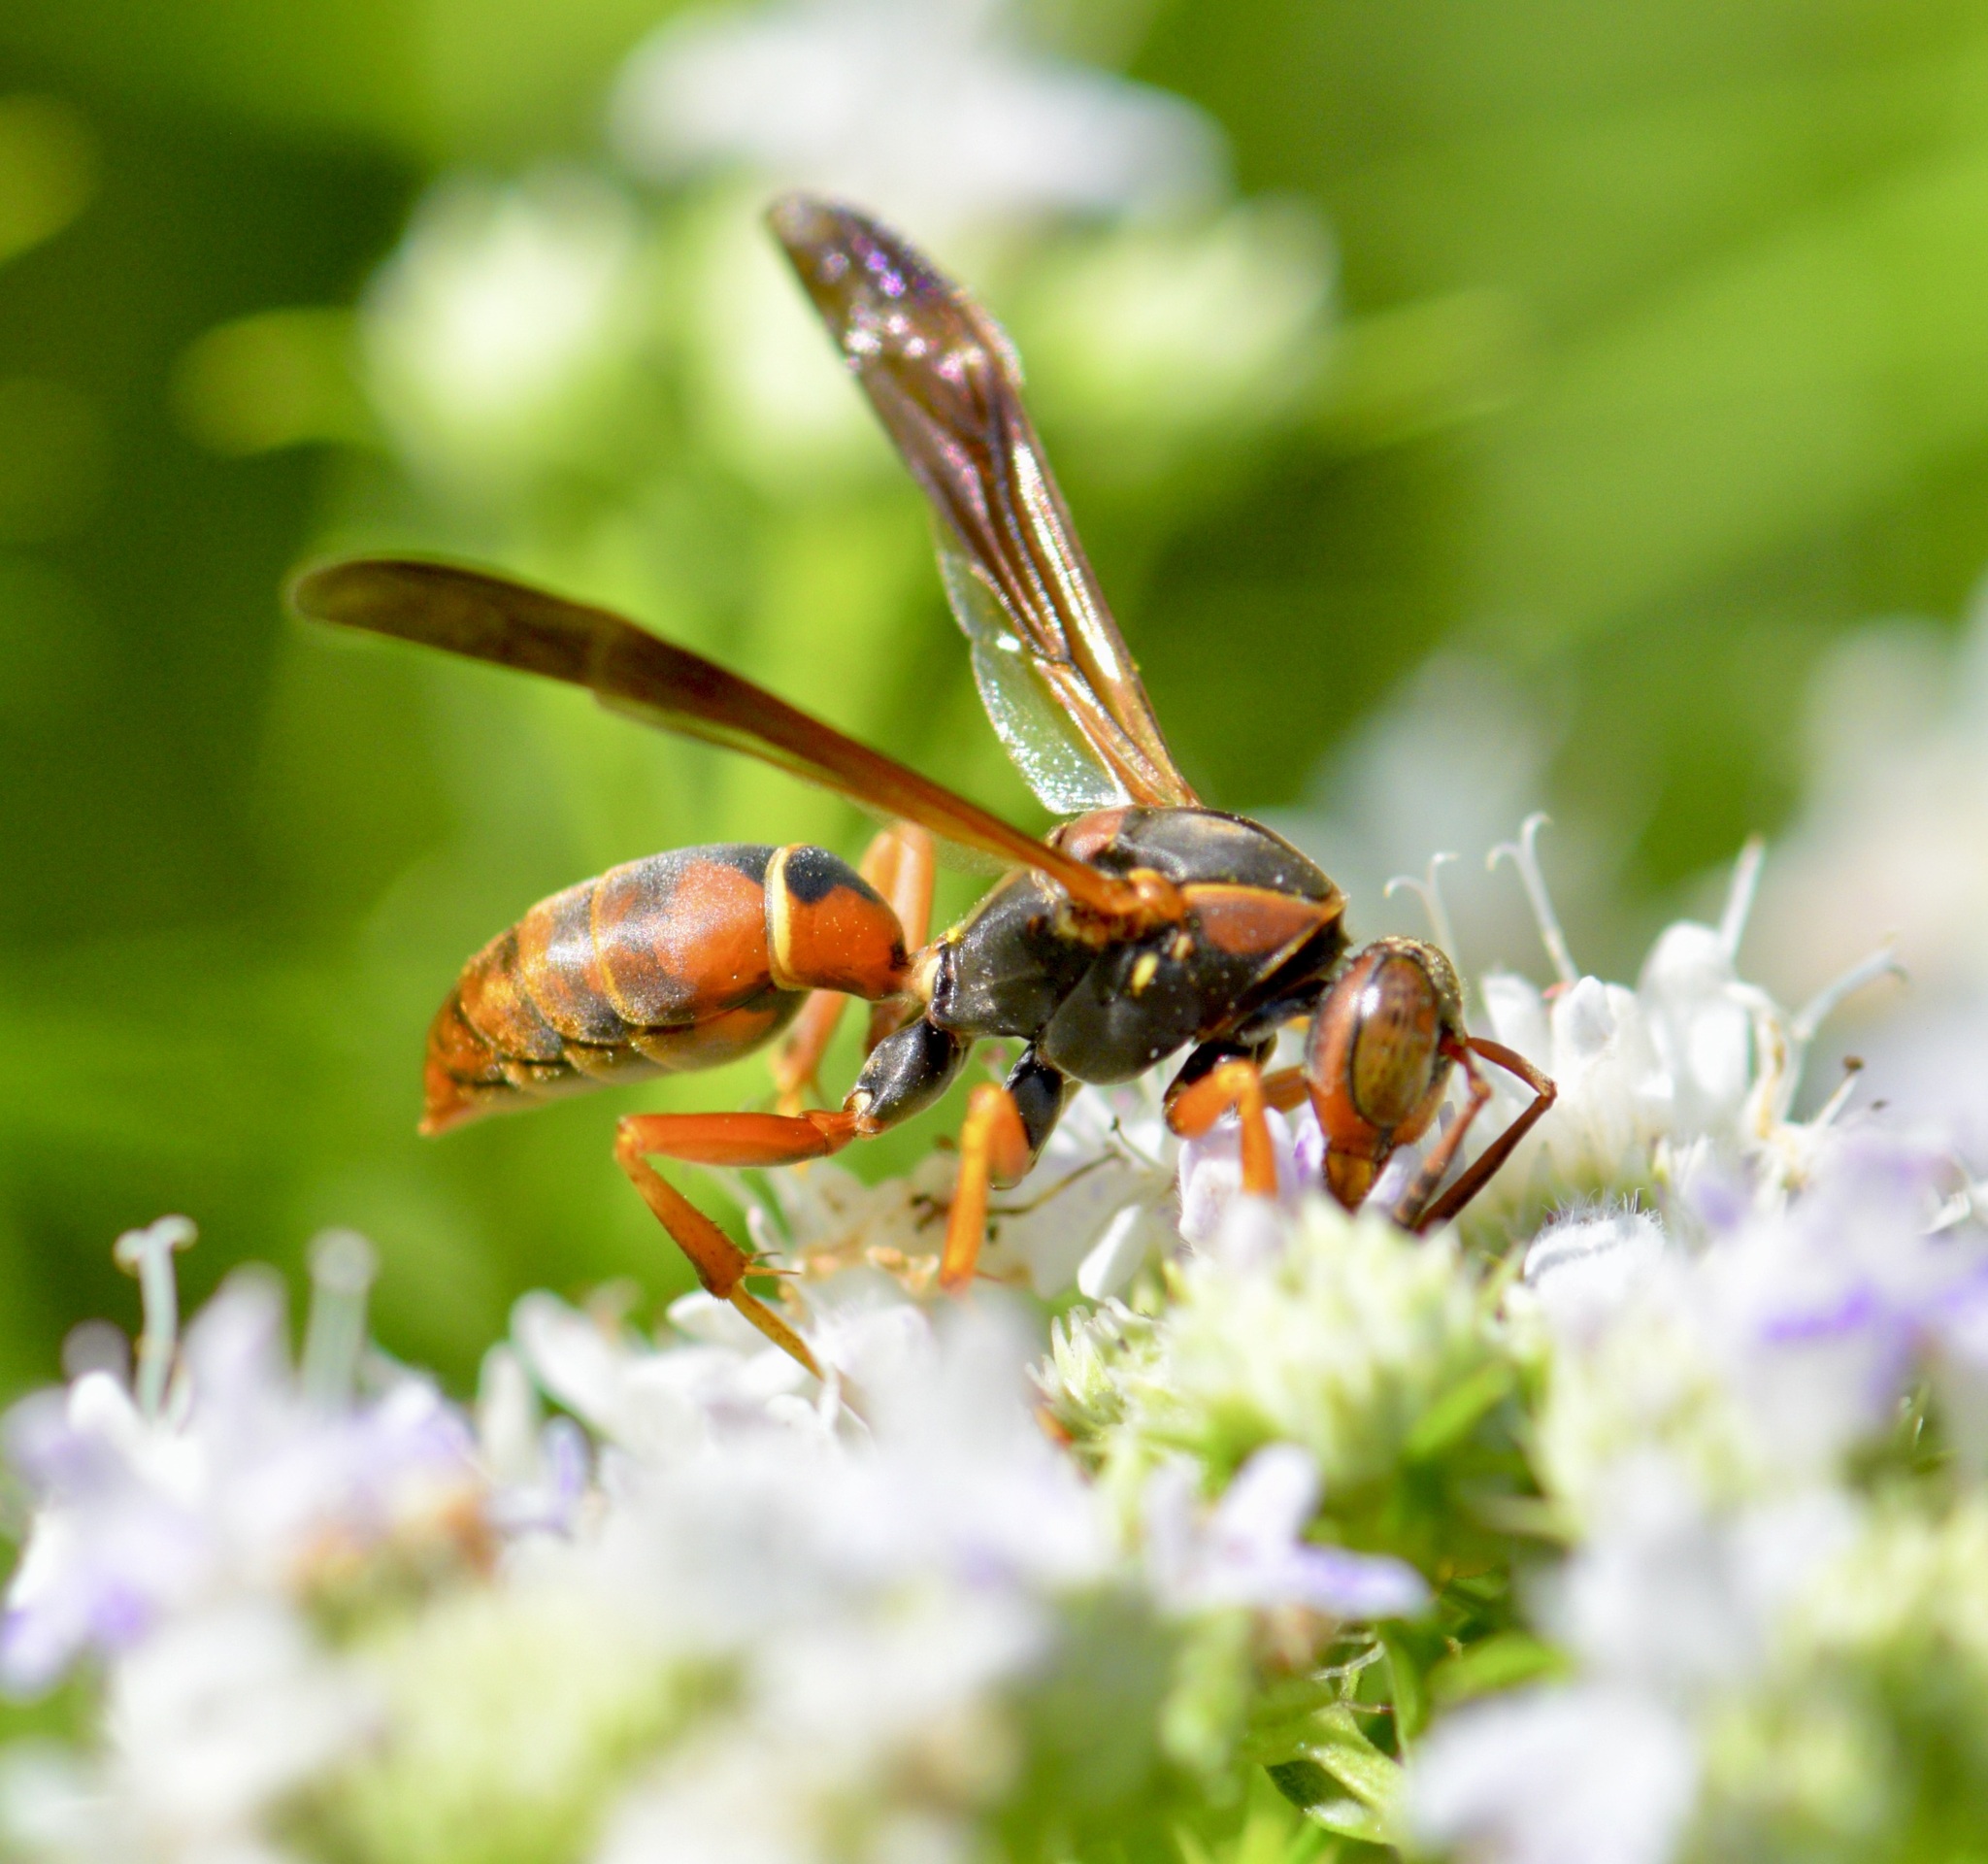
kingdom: Animalia
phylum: Arthropoda
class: Insecta
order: Hymenoptera
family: Eumenidae
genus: Polistes
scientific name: Polistes fuscatus
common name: Dark paper wasp
